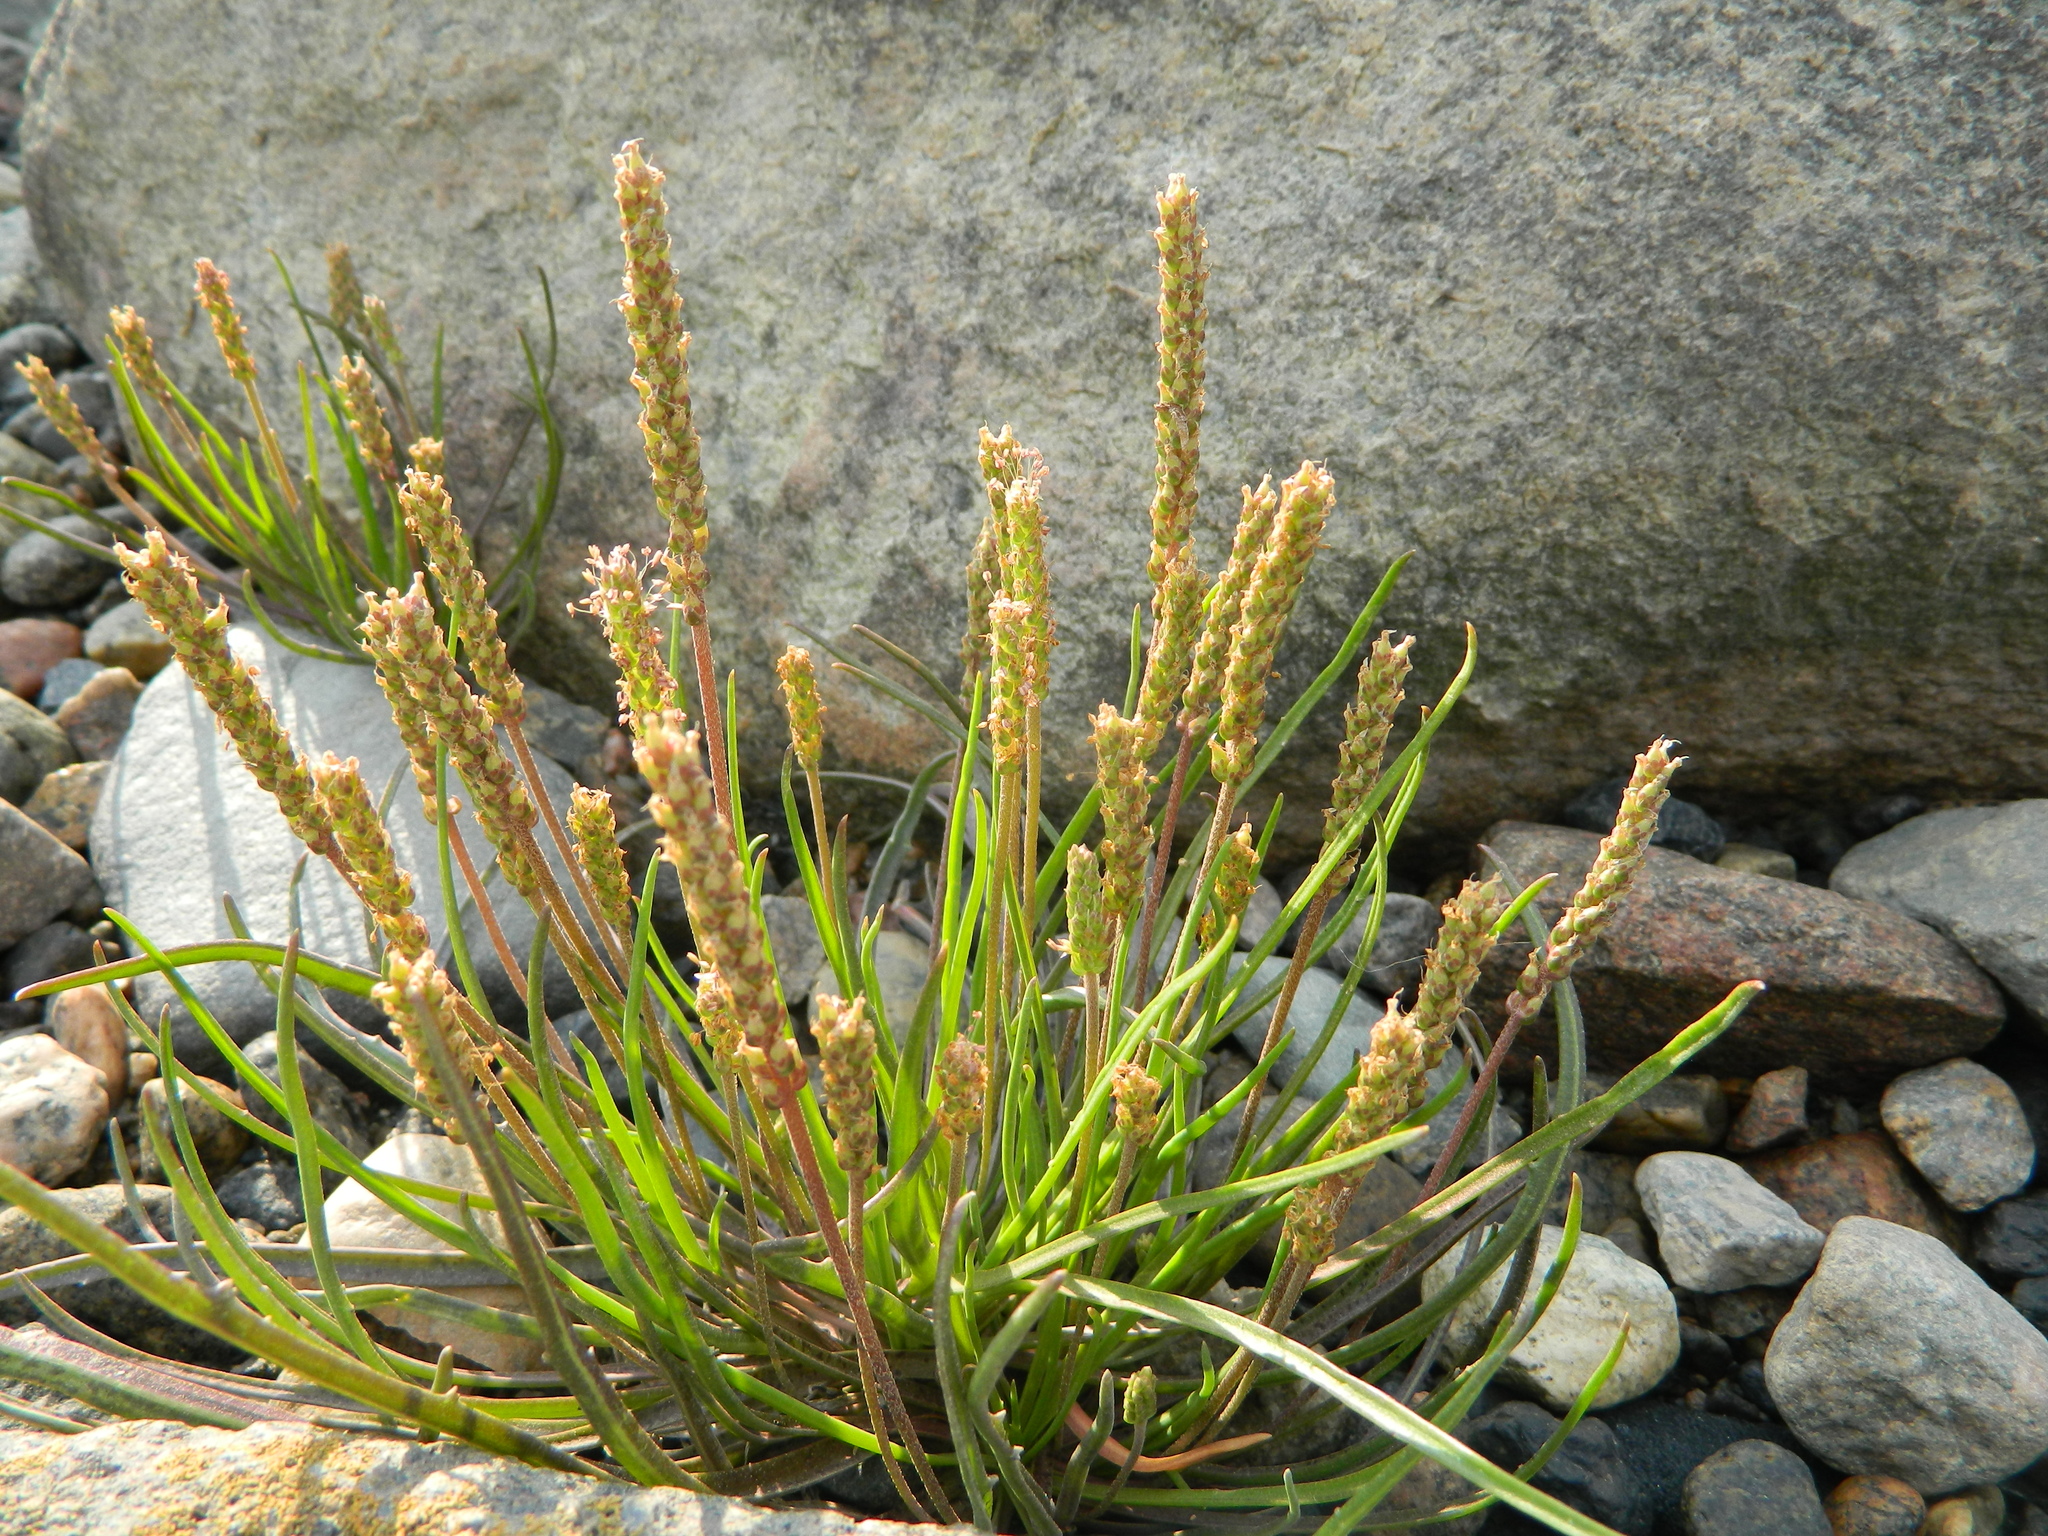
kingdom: Plantae
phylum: Tracheophyta
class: Magnoliopsida
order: Lamiales
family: Plantaginaceae
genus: Plantago
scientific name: Plantago maritima
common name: Sea plantain
